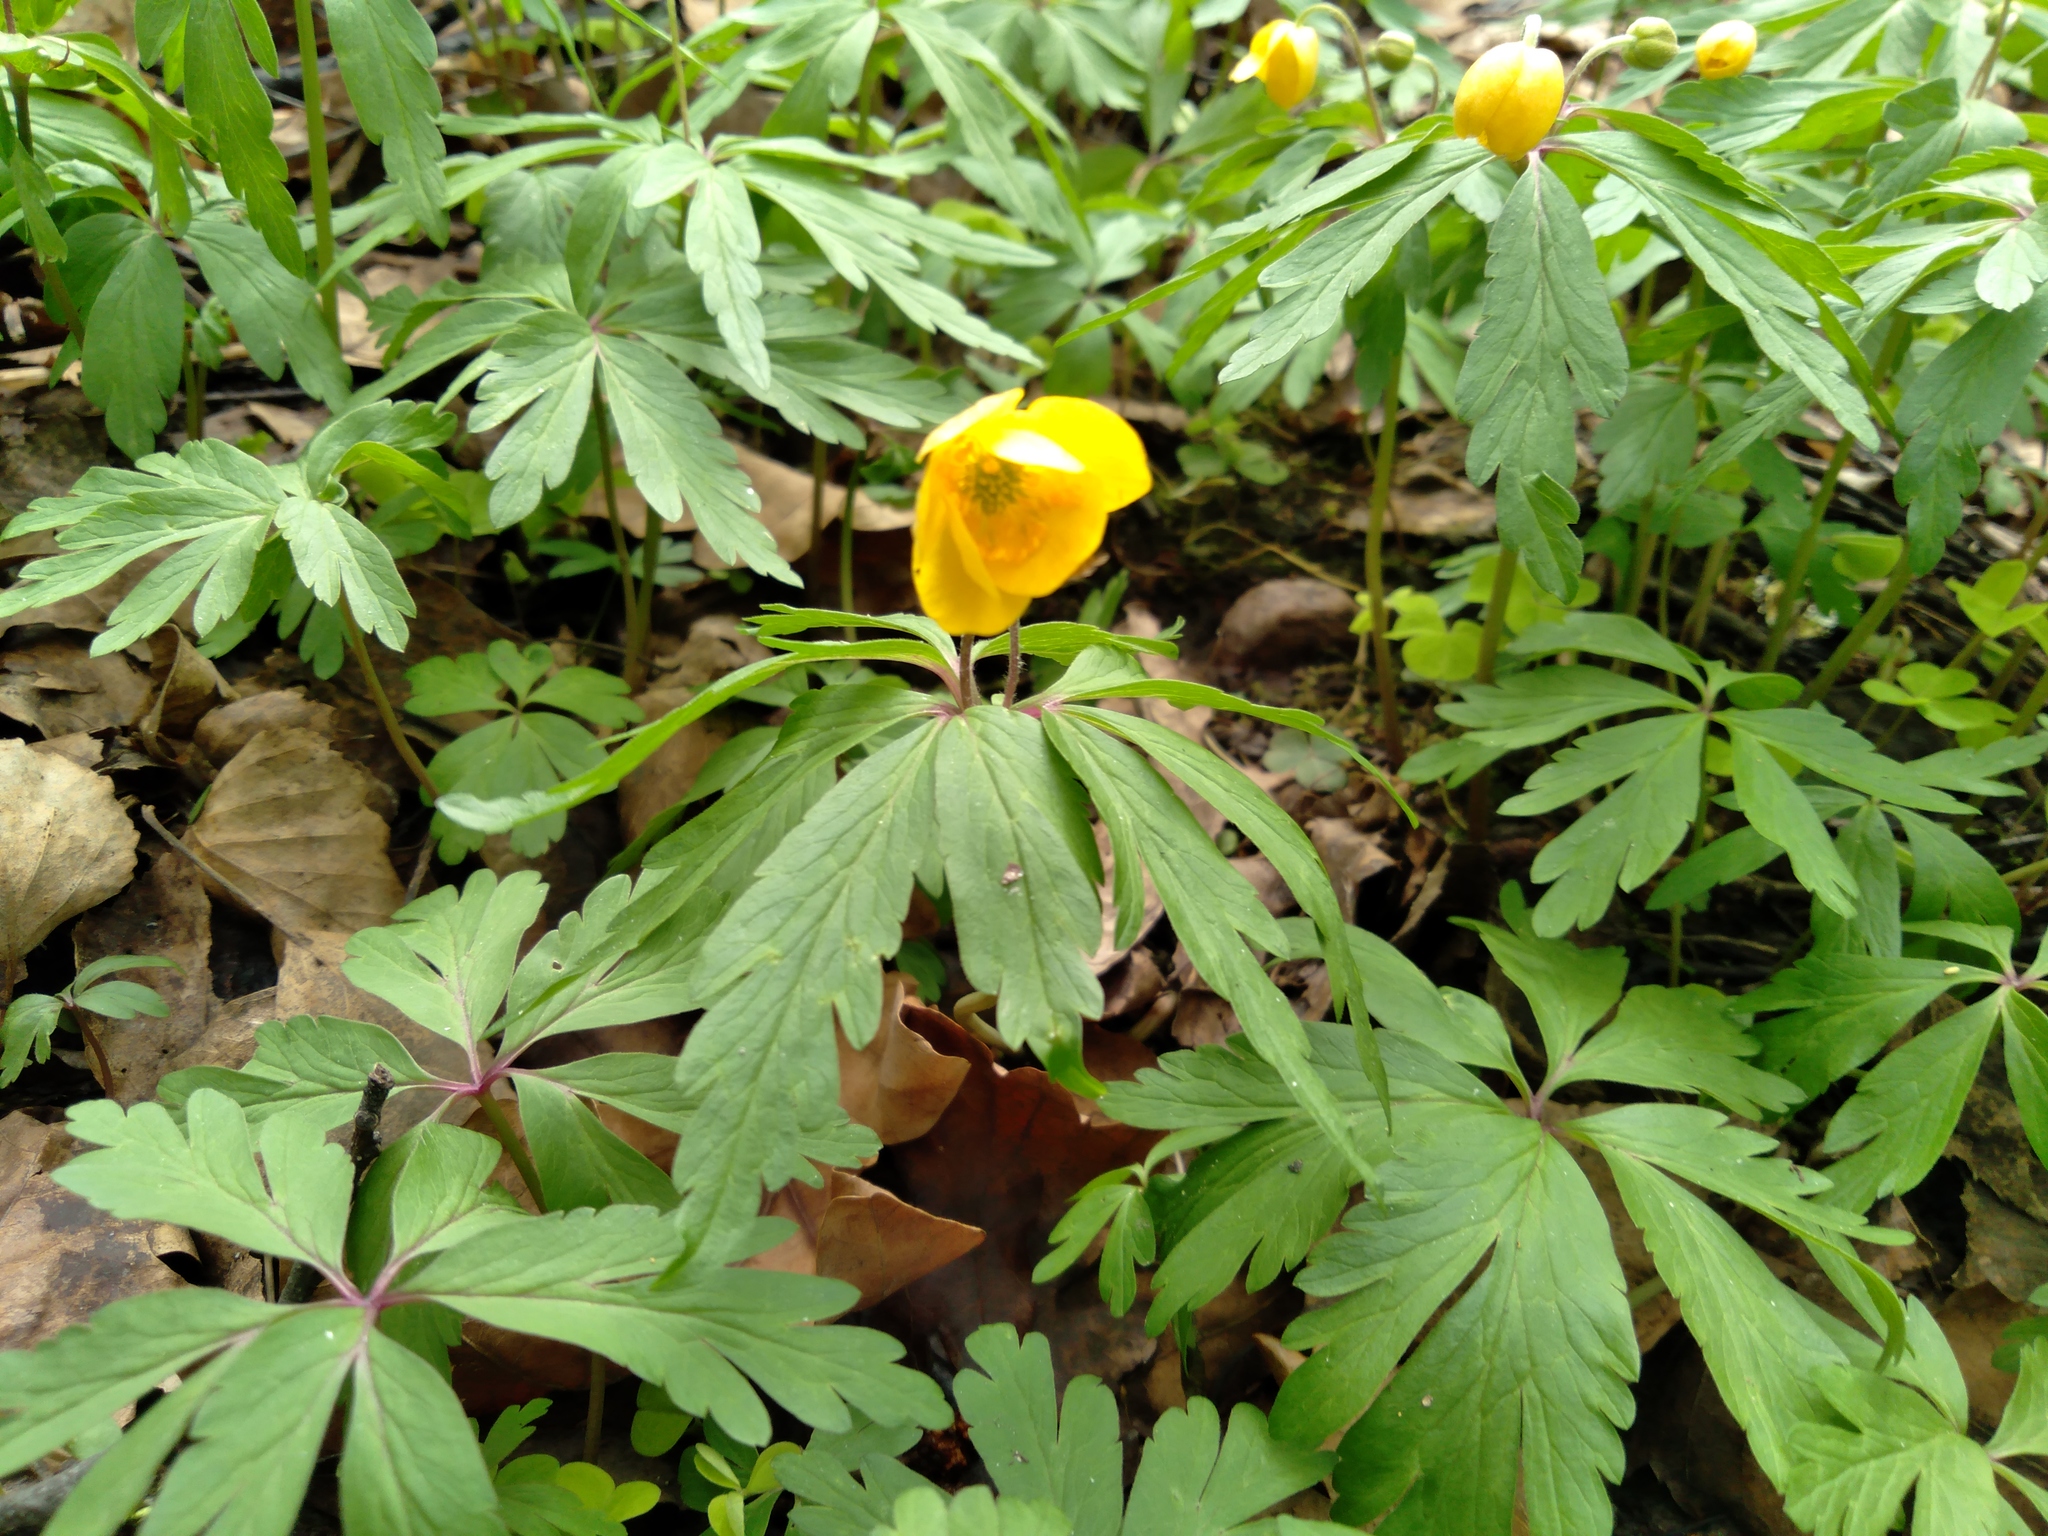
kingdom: Plantae
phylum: Tracheophyta
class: Magnoliopsida
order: Ranunculales
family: Ranunculaceae
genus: Anemone
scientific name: Anemone ranunculoides
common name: Yellow anemone
